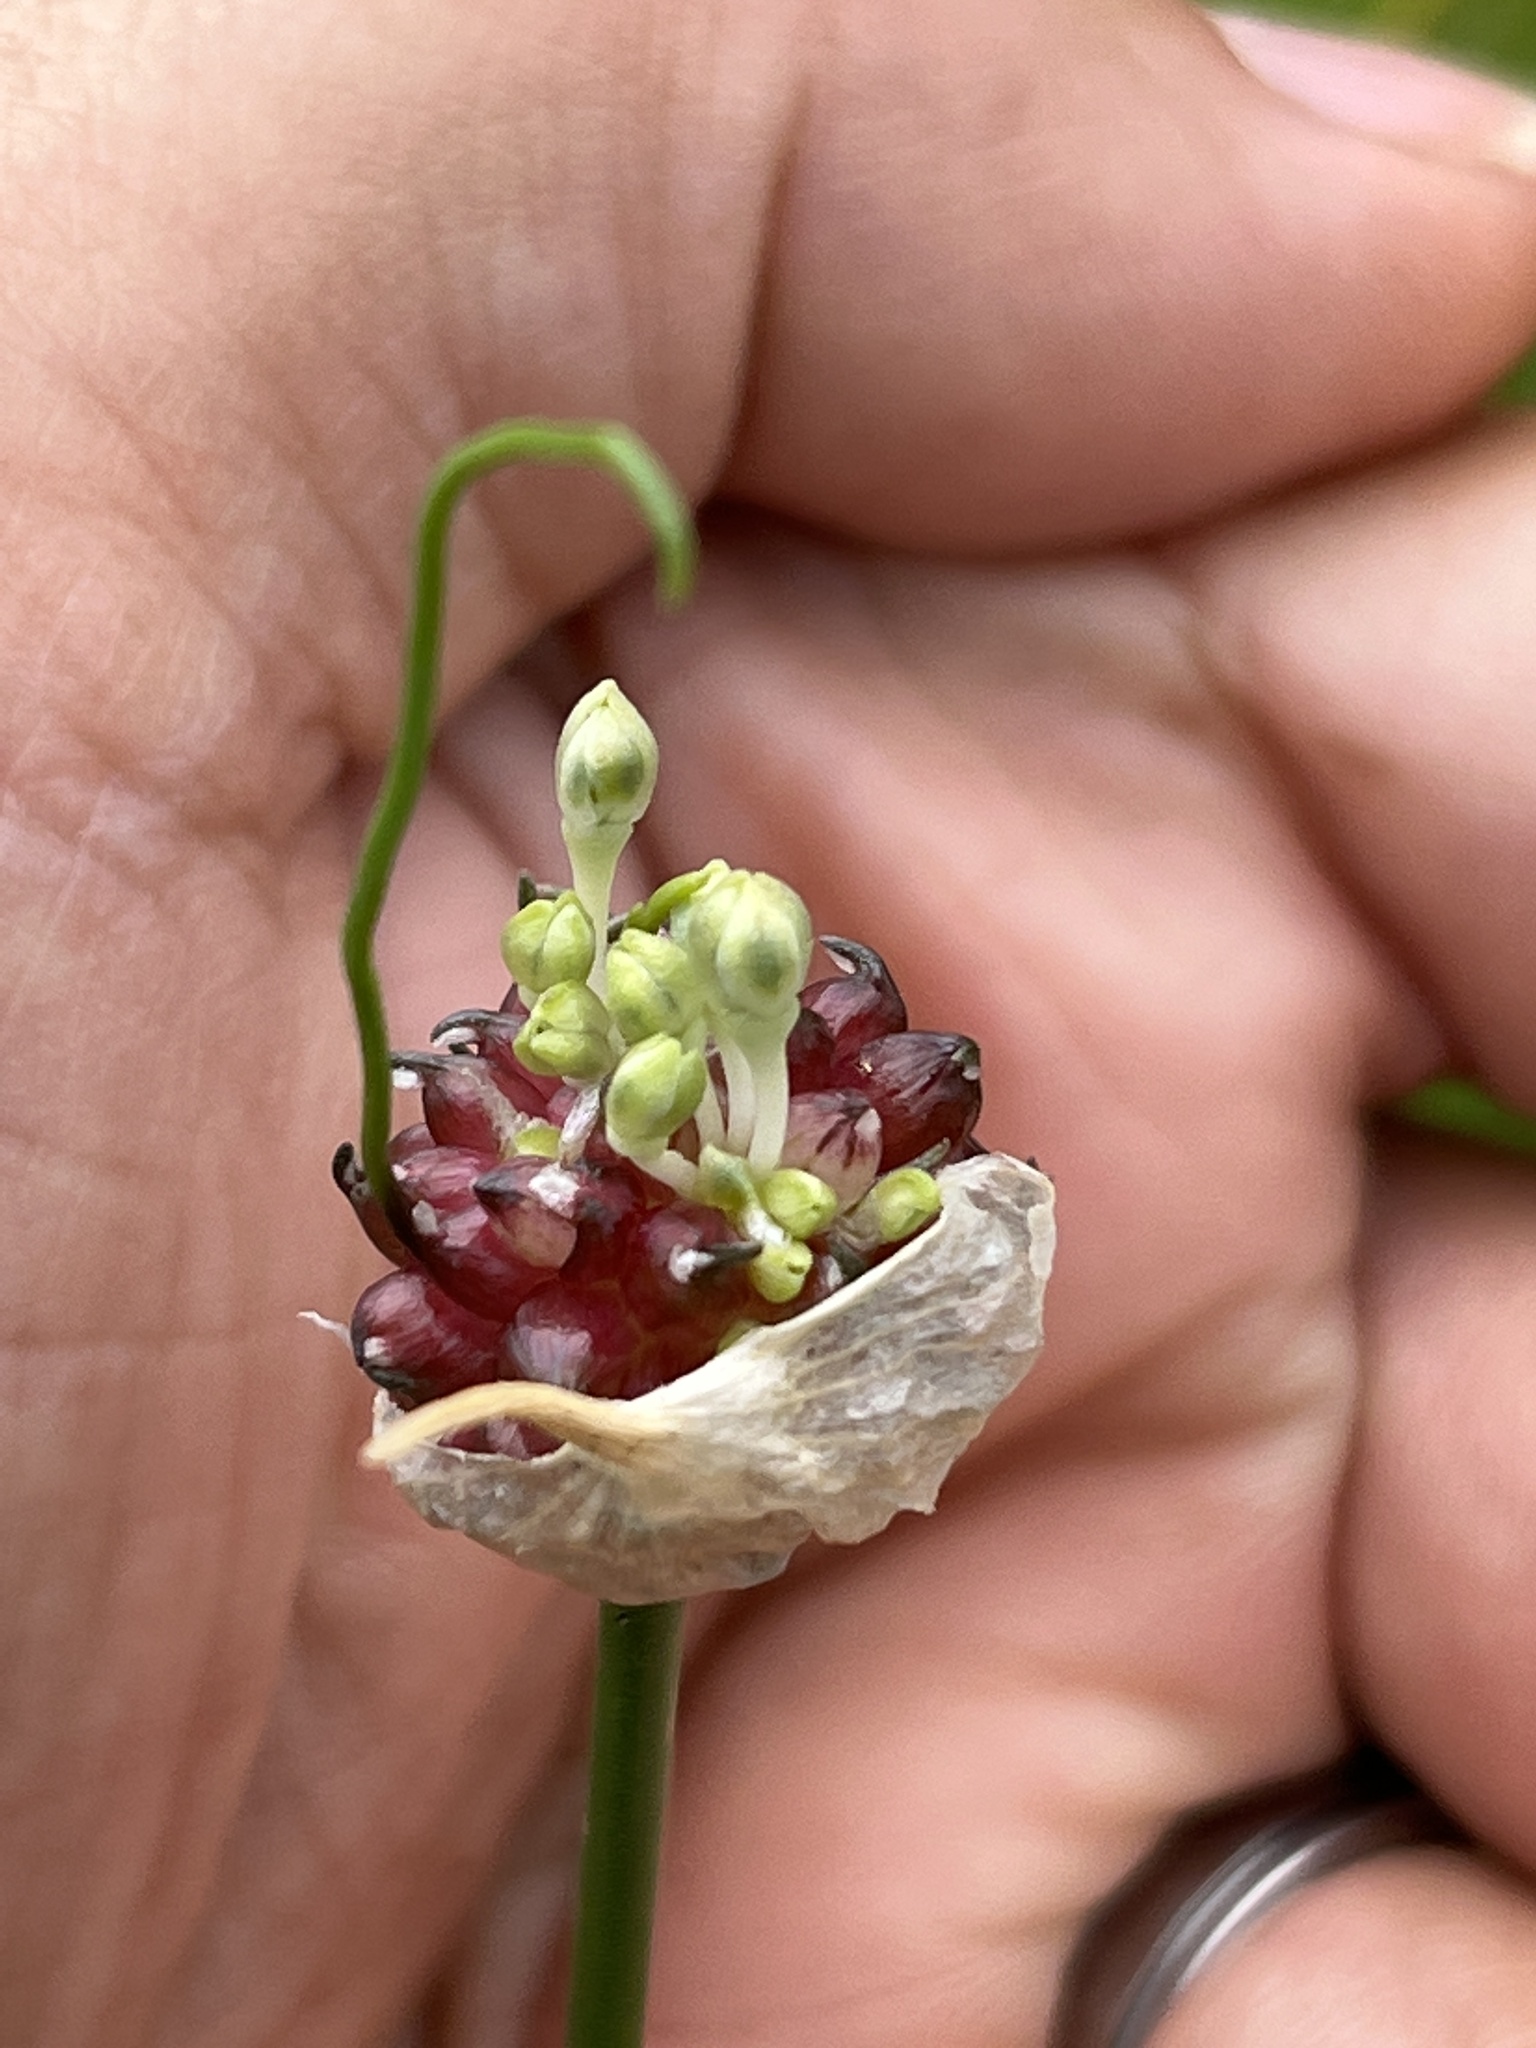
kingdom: Plantae
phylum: Tracheophyta
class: Liliopsida
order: Asparagales
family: Amaryllidaceae
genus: Allium
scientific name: Allium vineale
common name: Crow garlic
